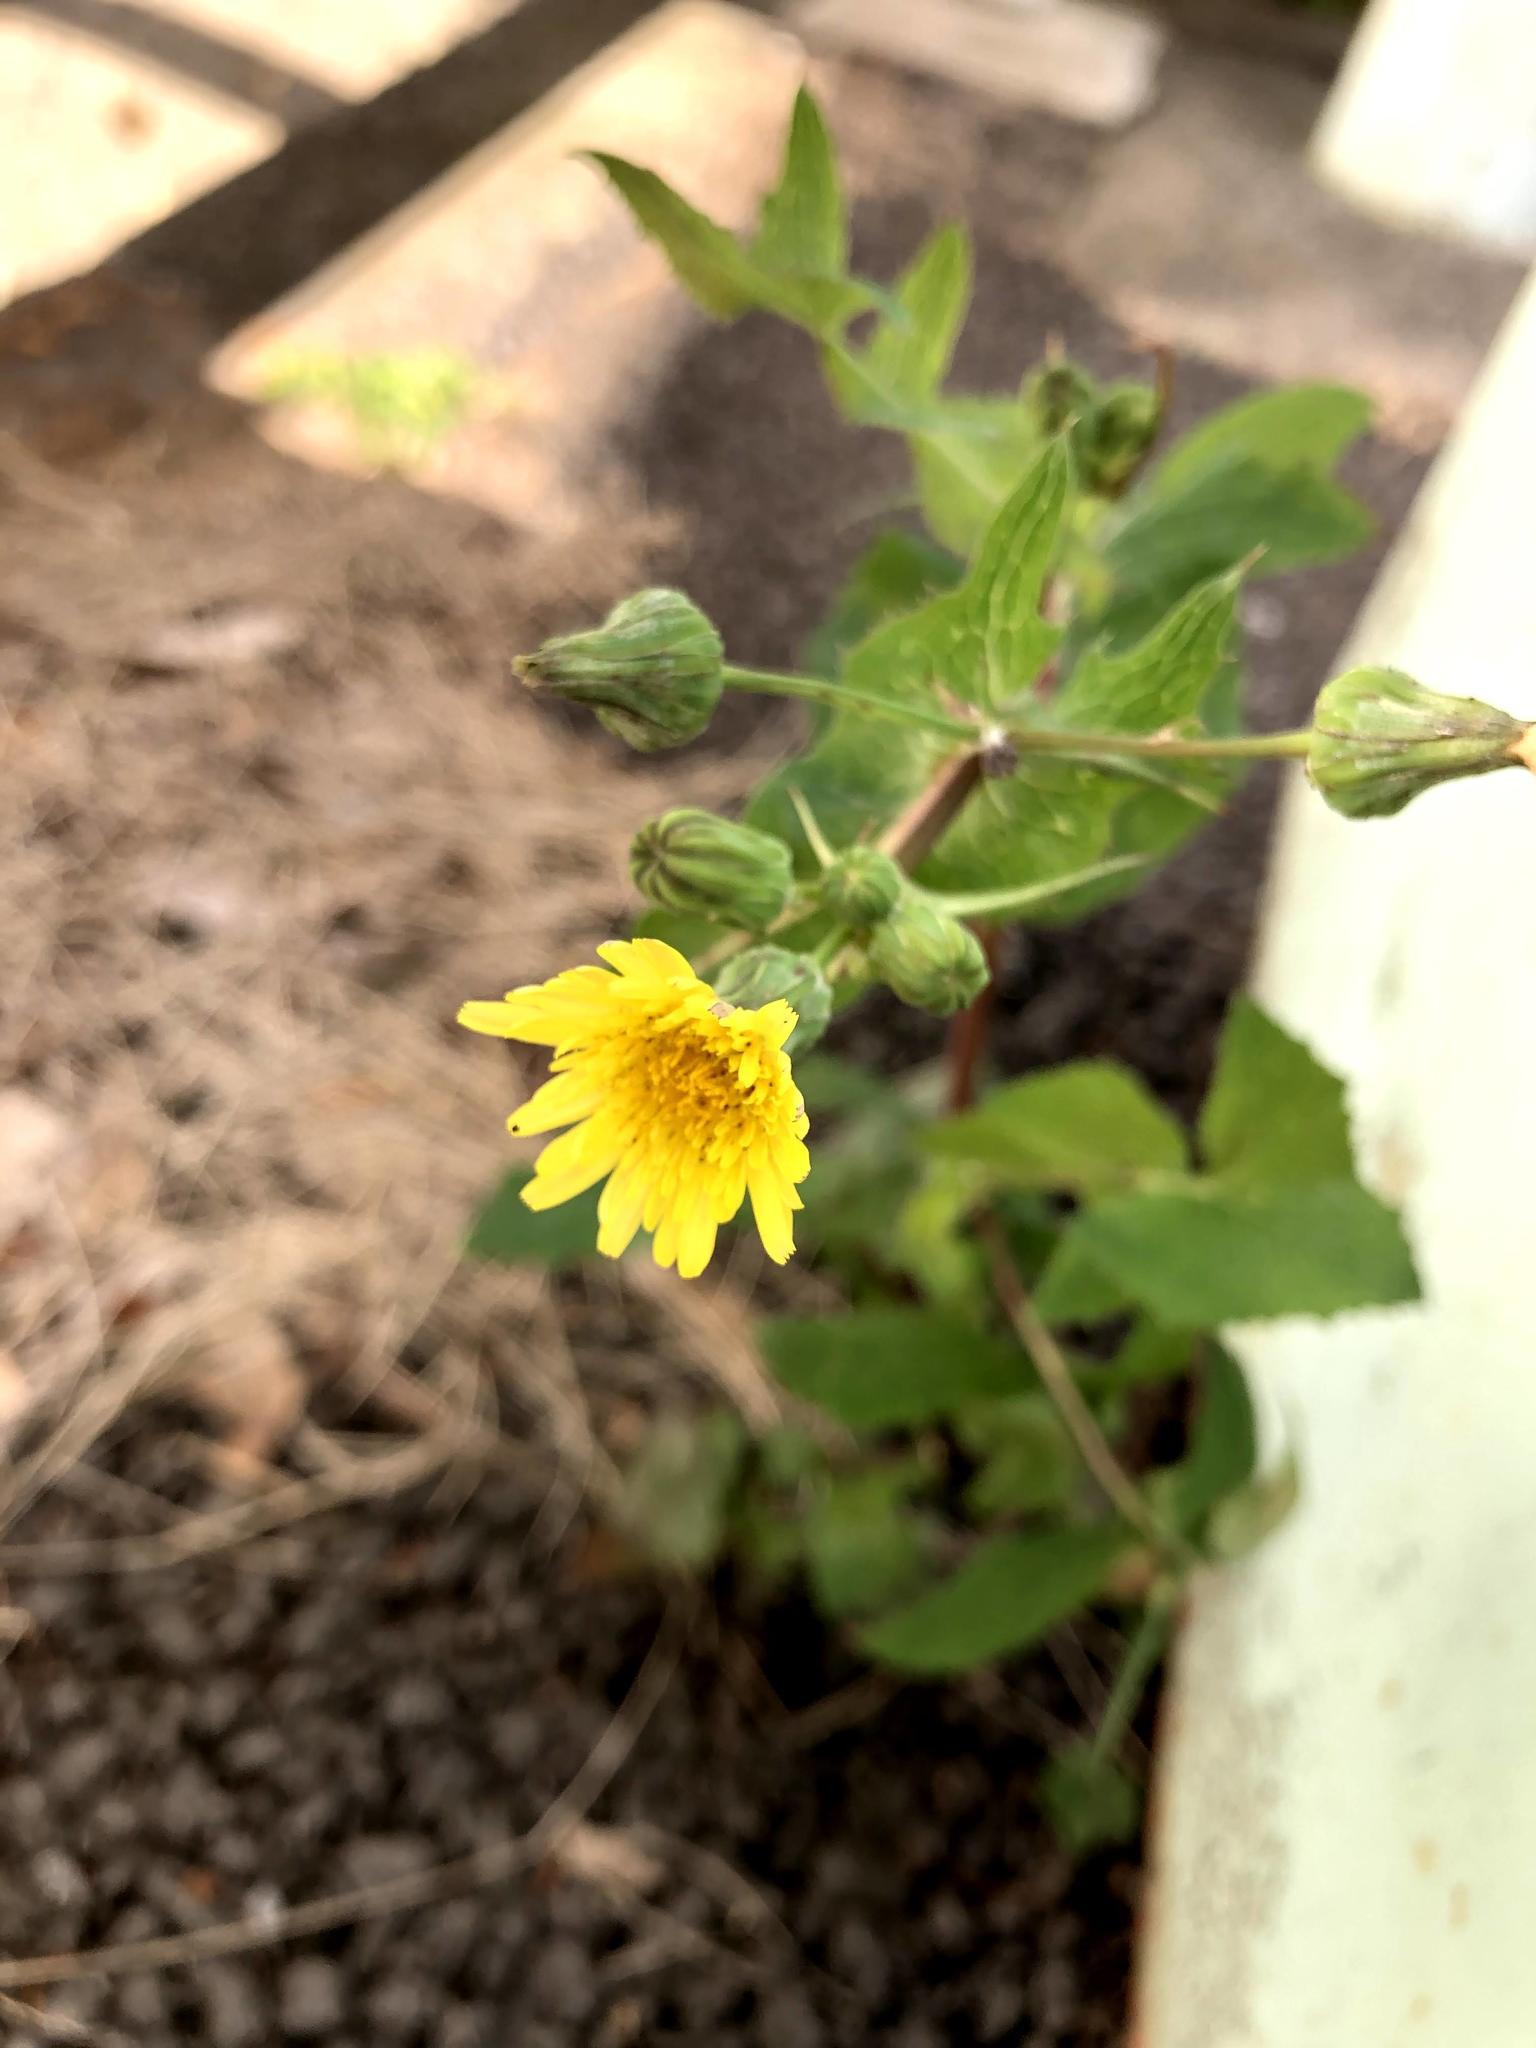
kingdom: Plantae
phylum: Tracheophyta
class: Magnoliopsida
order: Asterales
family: Asteraceae
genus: Sonchus
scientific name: Sonchus oleraceus
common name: Common sowthistle
